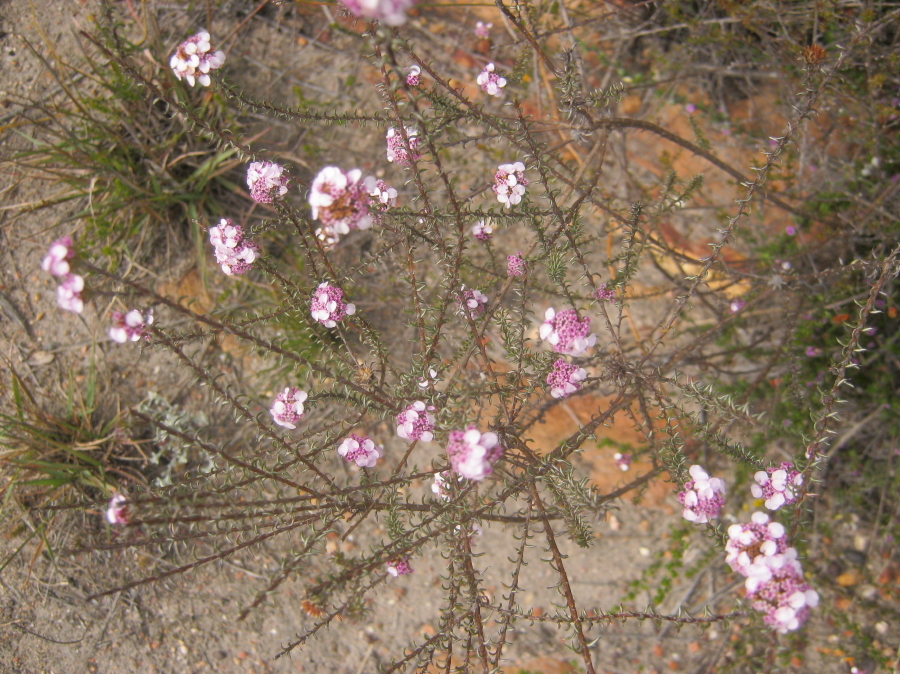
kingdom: Plantae
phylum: Tracheophyta
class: Magnoliopsida
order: Asterales
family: Asteraceae
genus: Disparago
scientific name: Disparago tortilis
